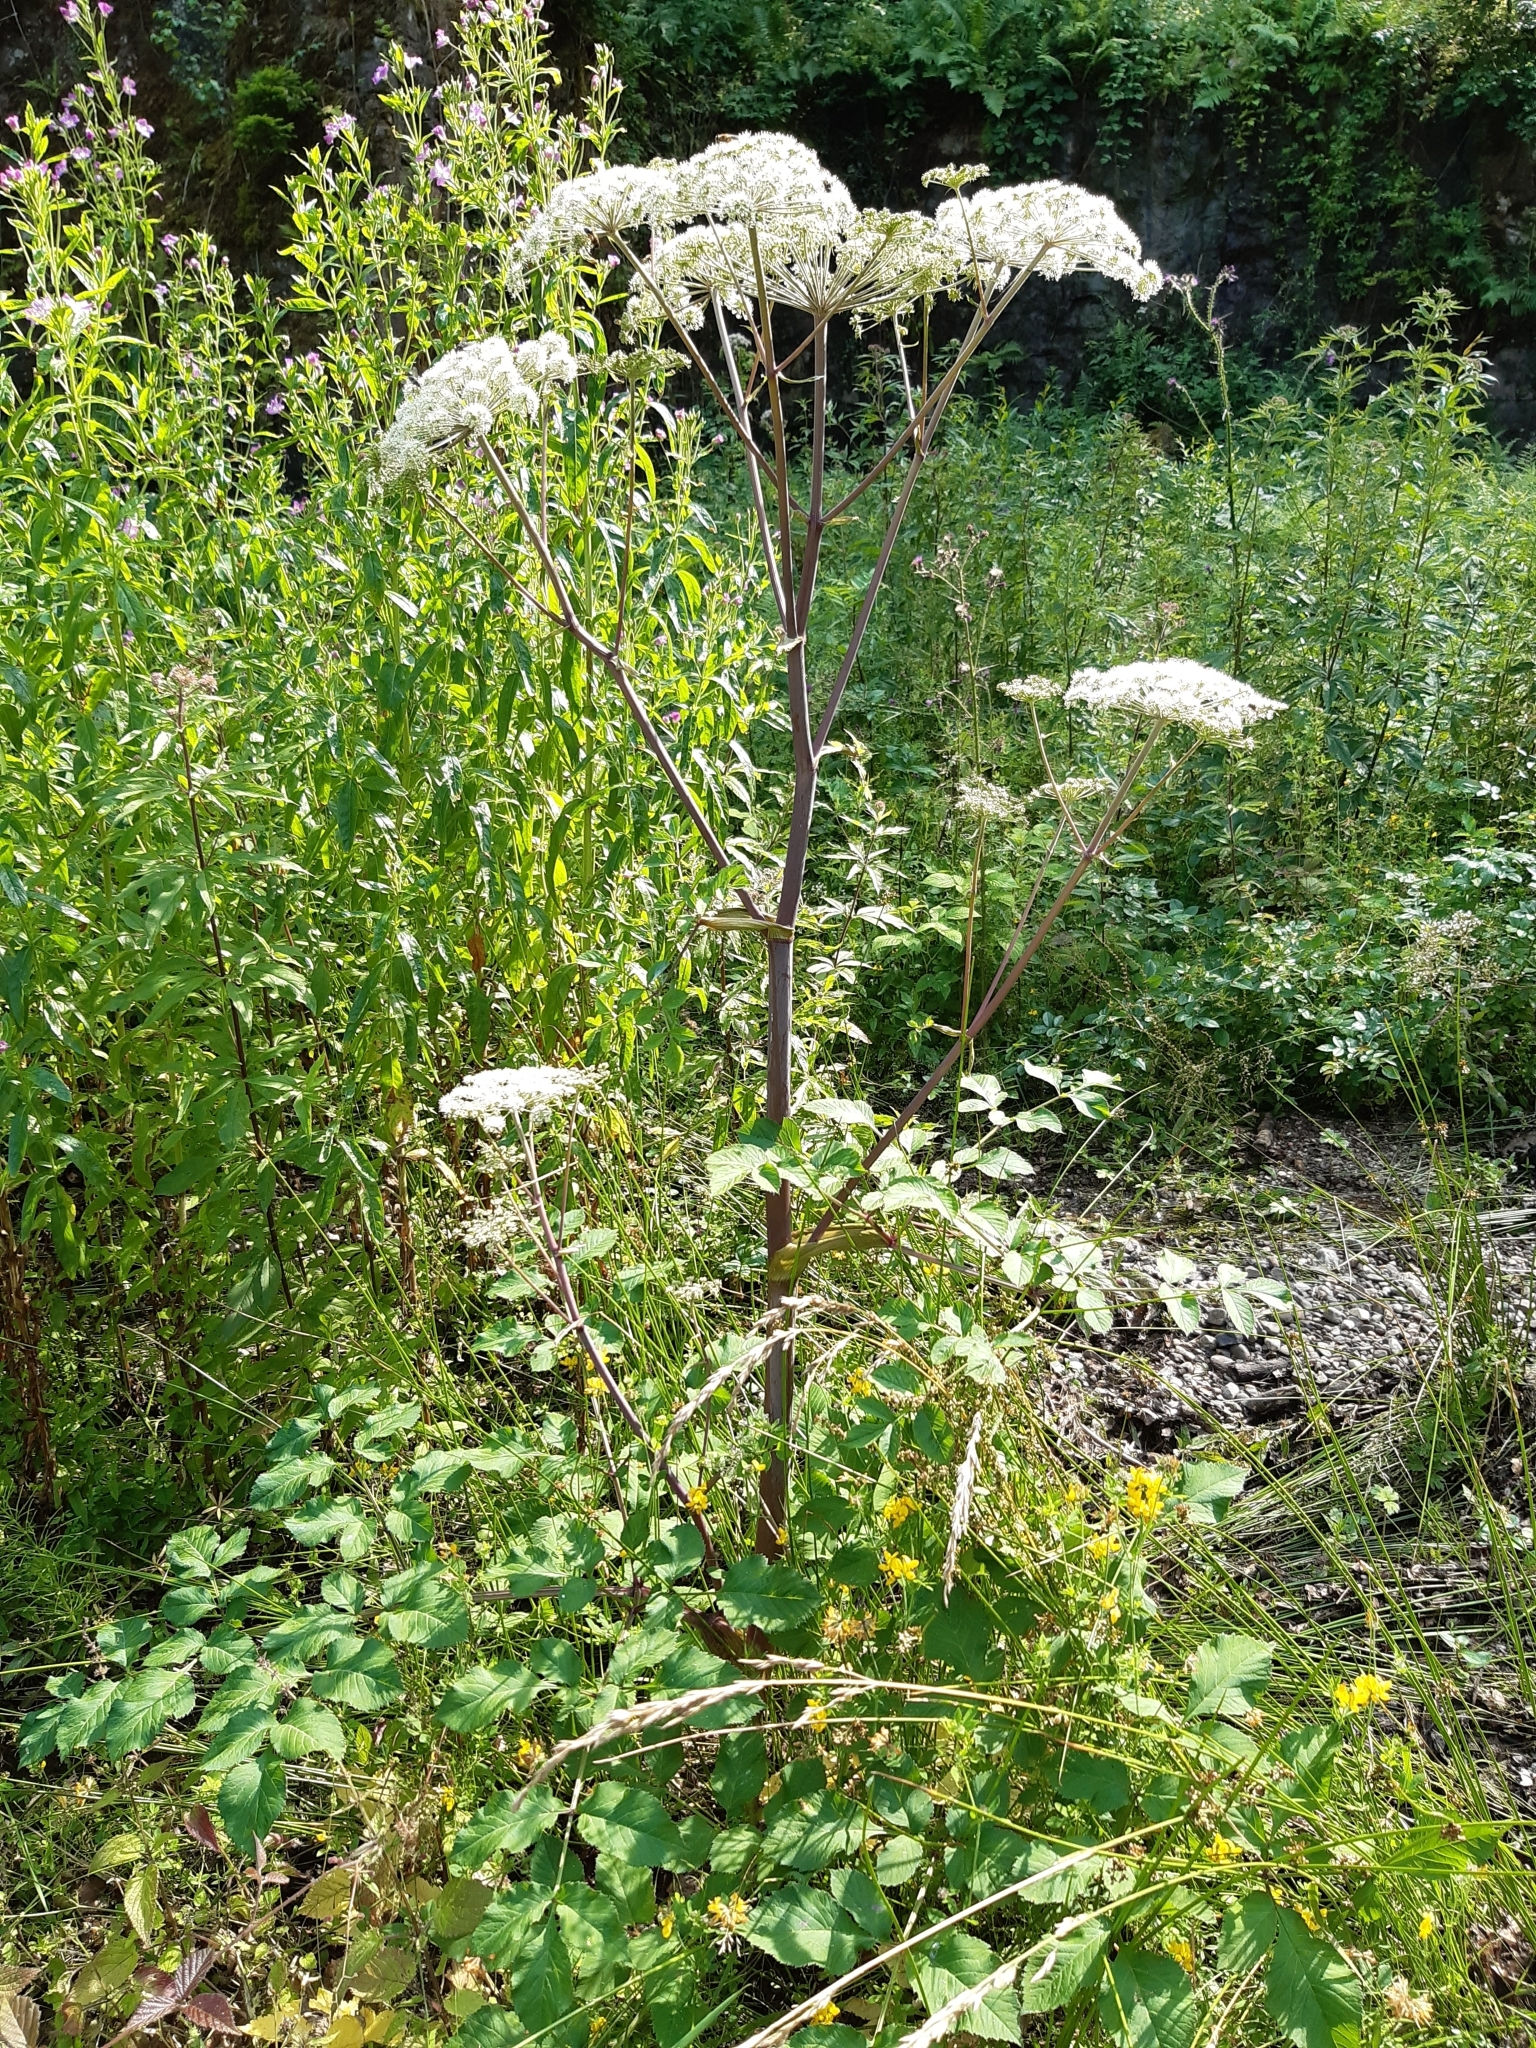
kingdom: Plantae
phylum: Tracheophyta
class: Magnoliopsida
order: Apiales
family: Apiaceae
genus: Angelica
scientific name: Angelica sylvestris
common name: Wild angelica
